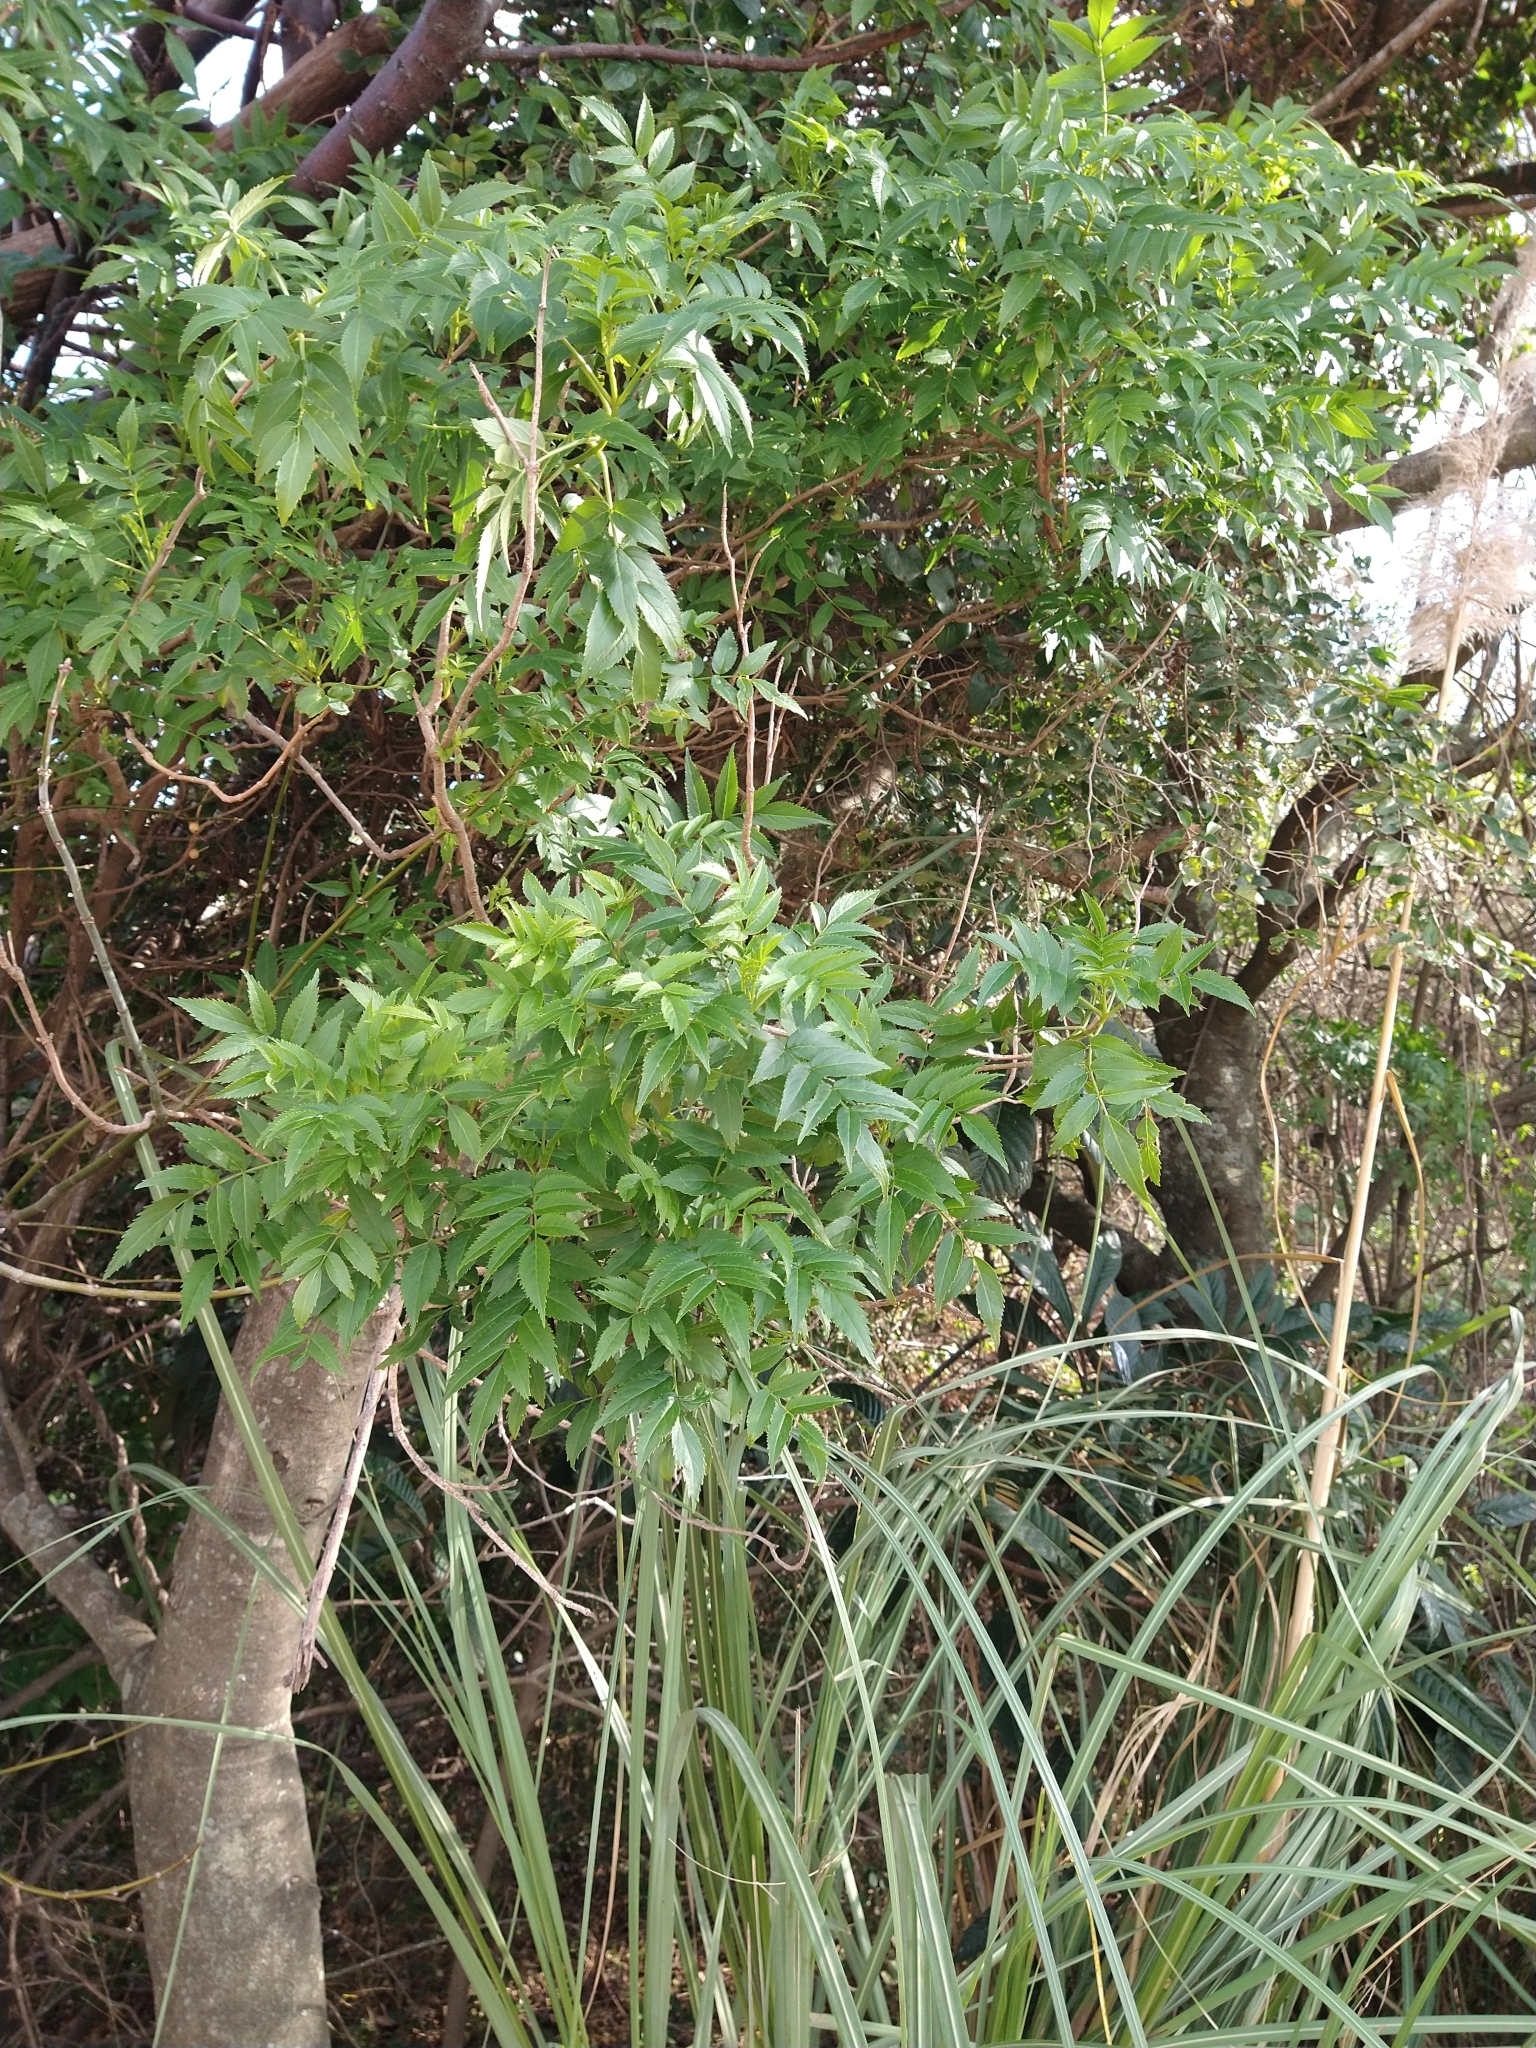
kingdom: Plantae
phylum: Tracheophyta
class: Magnoliopsida
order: Lamiales
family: Bignoniaceae
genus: Tecoma
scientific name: Tecoma stans
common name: Yellow trumpetbush
